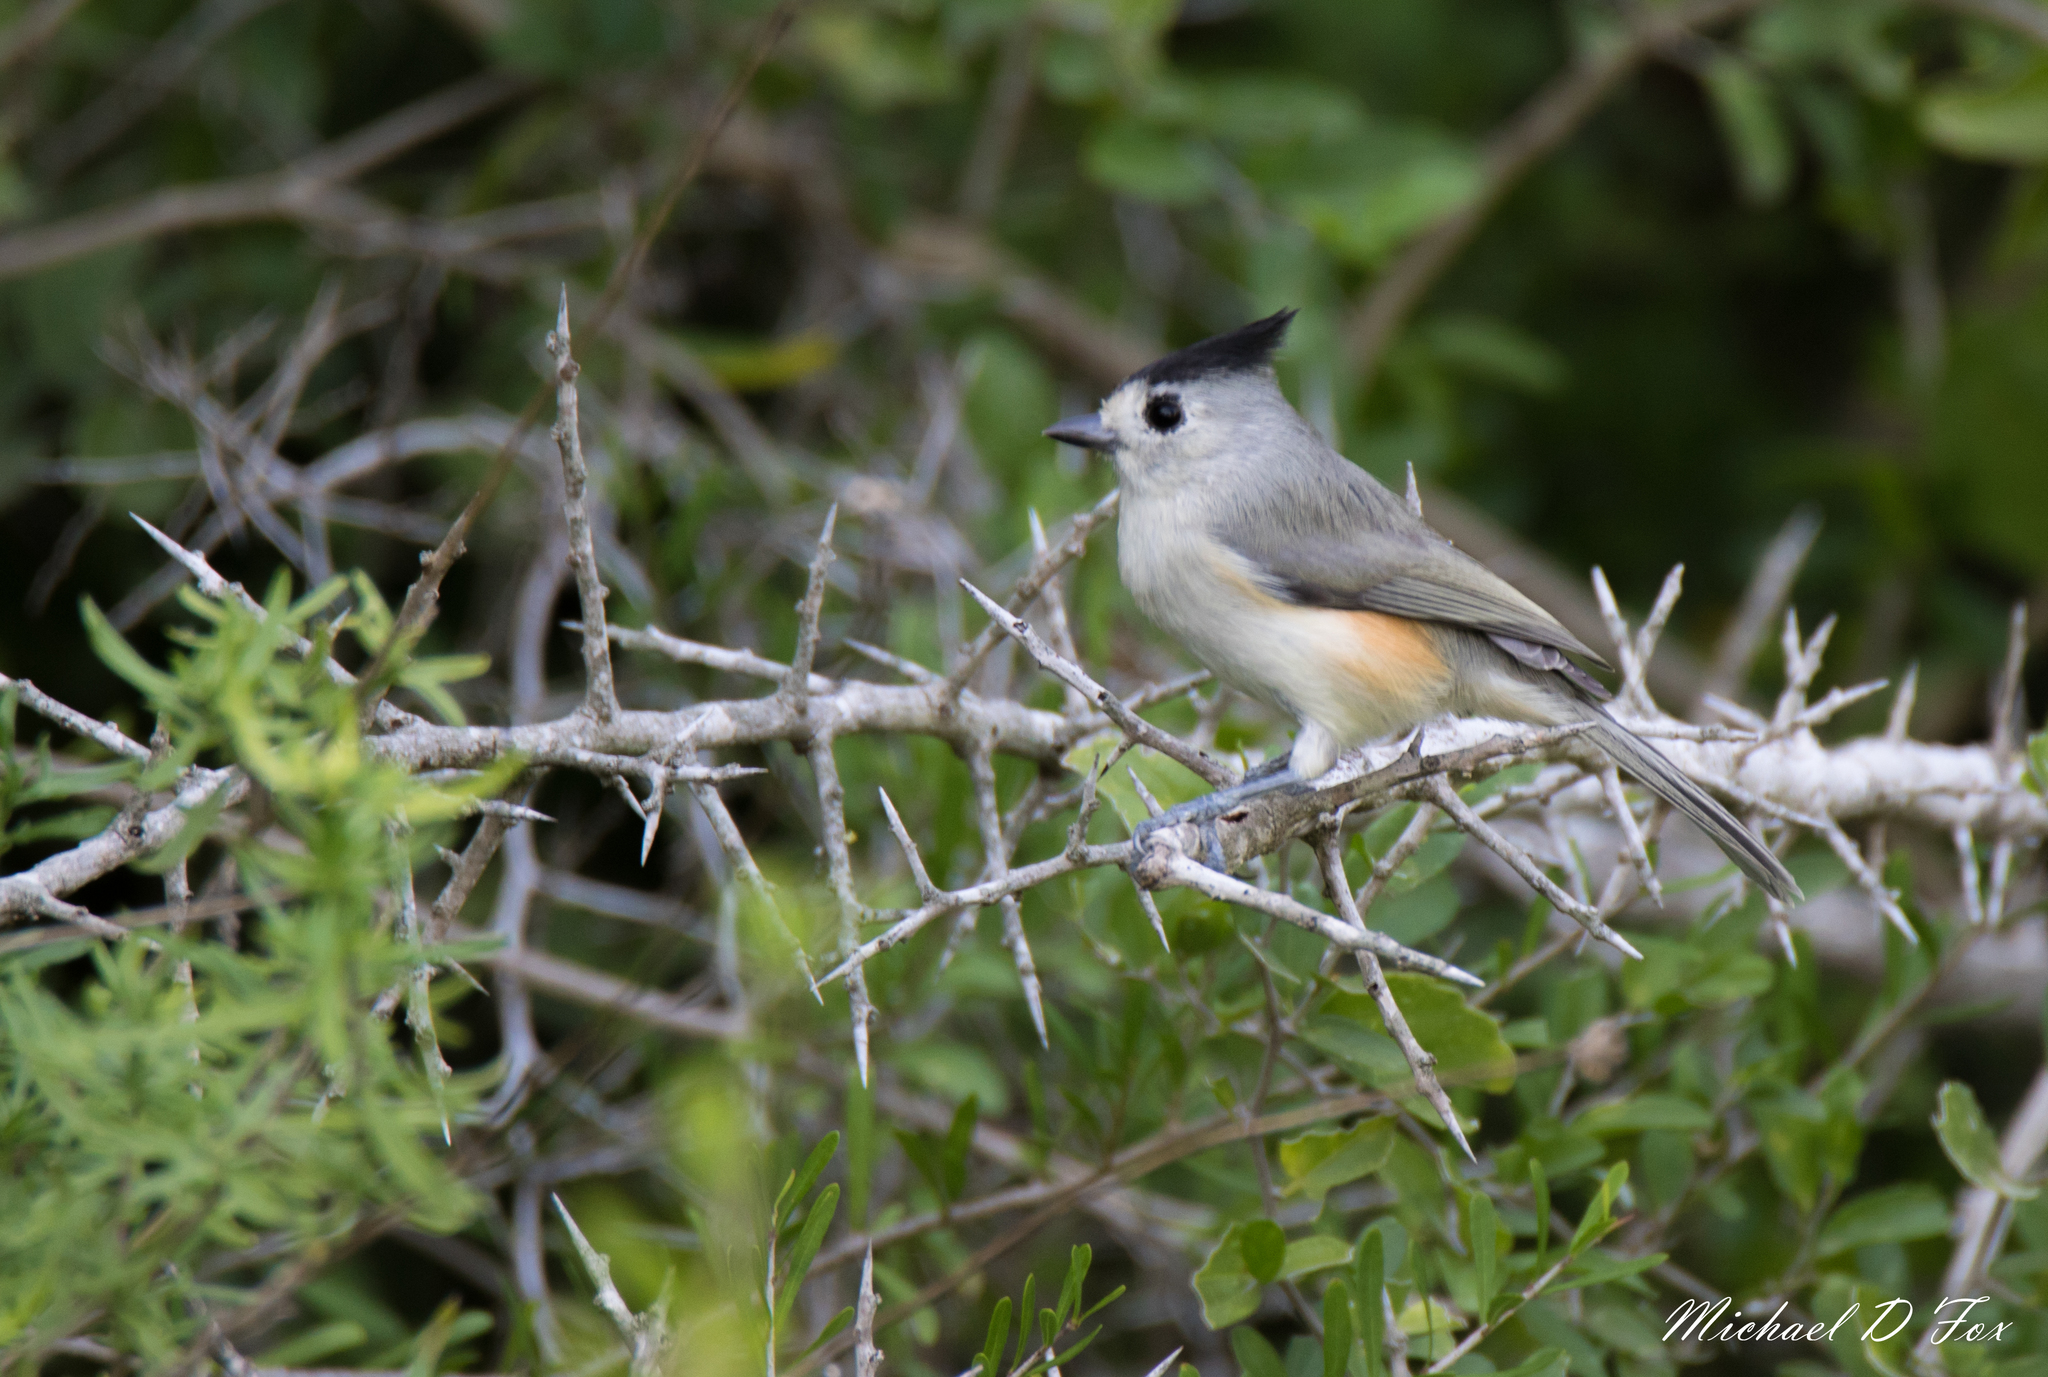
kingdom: Animalia
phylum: Chordata
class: Aves
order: Passeriformes
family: Paridae
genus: Baeolophus
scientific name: Baeolophus atricristatus
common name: Black-crested titmouse
